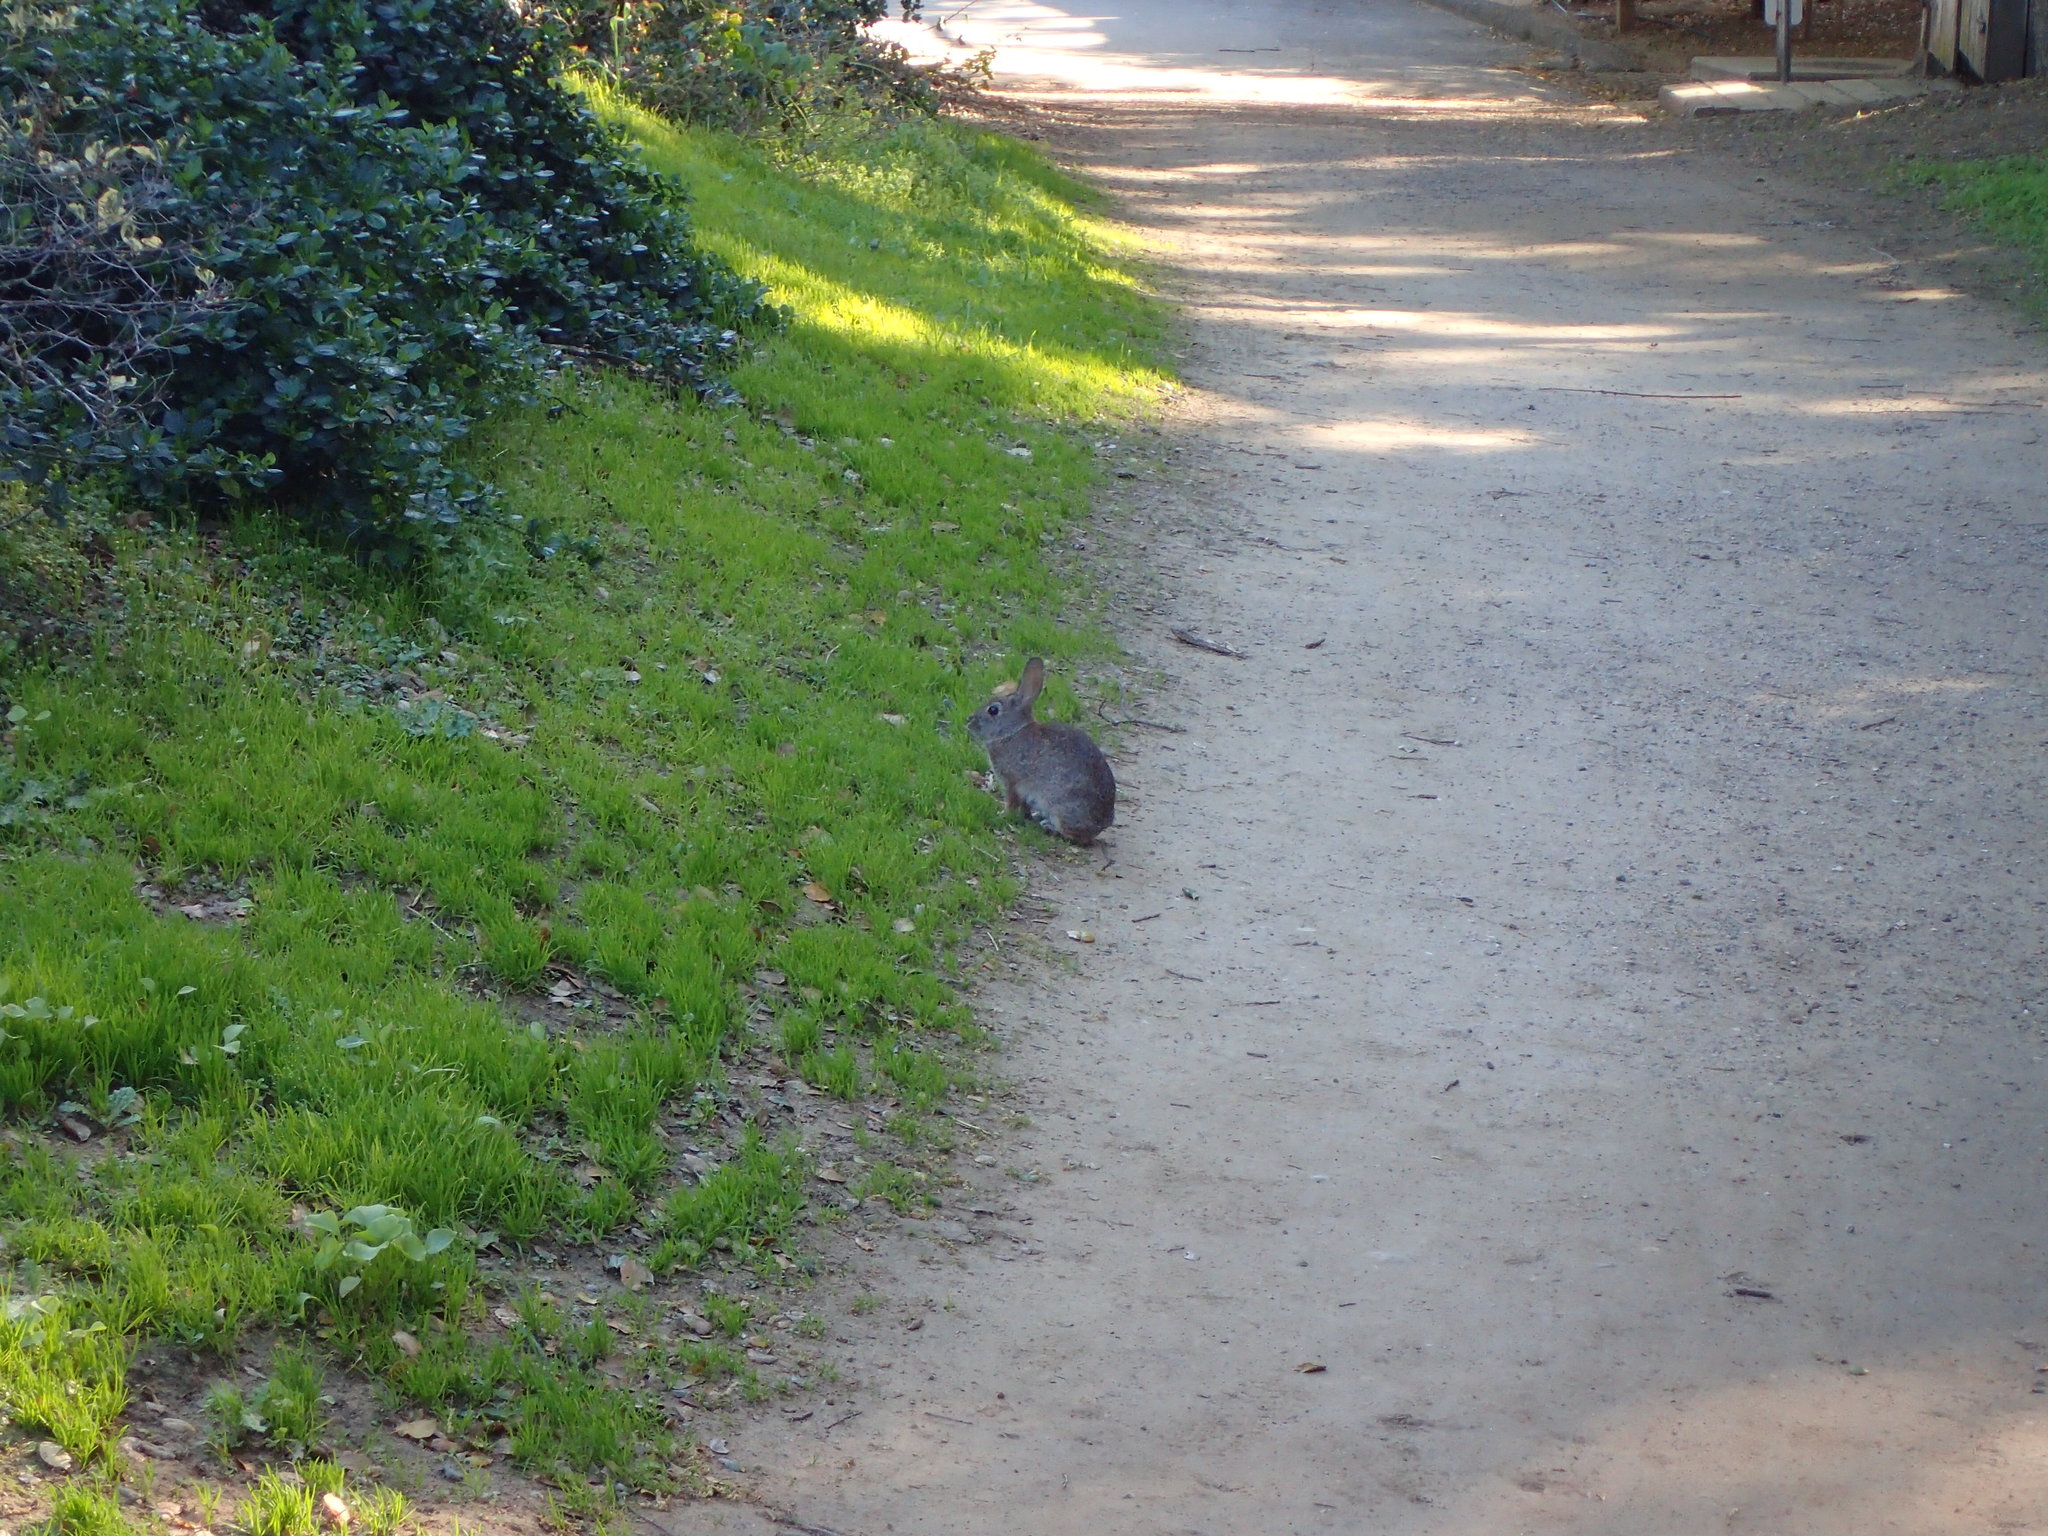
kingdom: Animalia
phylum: Chordata
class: Mammalia
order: Lagomorpha
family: Leporidae
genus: Sylvilagus
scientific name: Sylvilagus bachmani
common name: Brush rabbit
